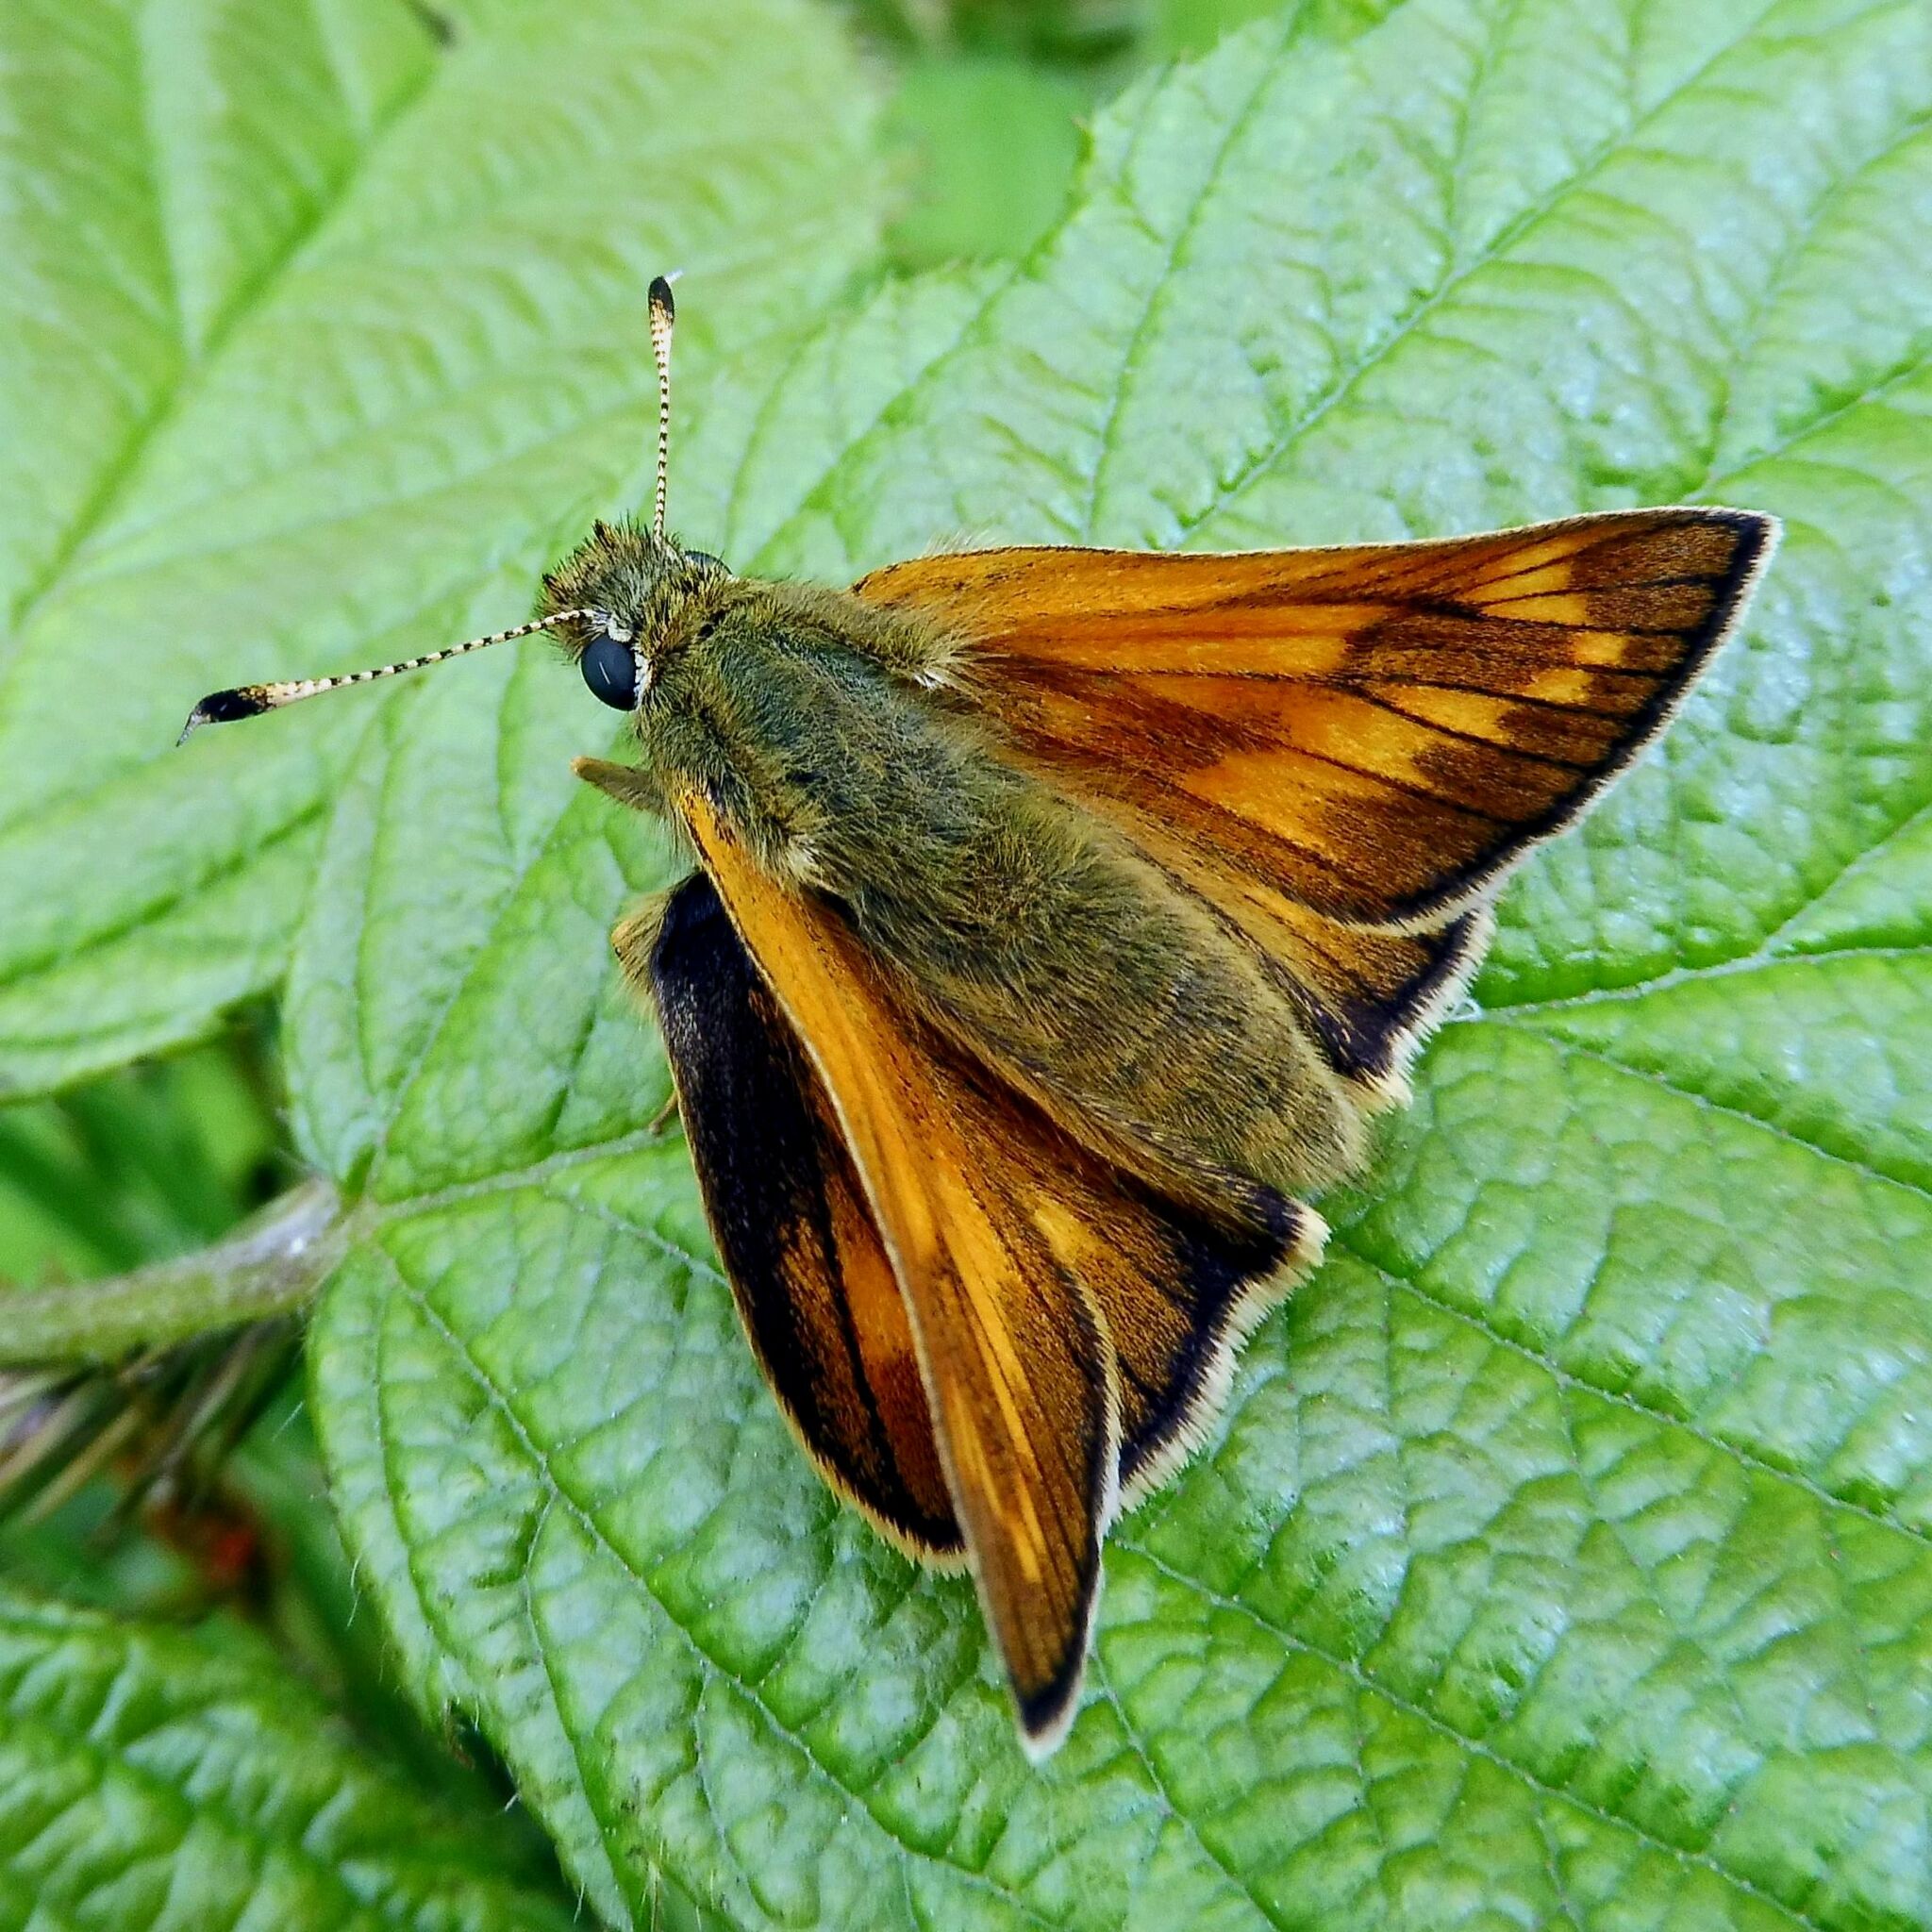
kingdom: Animalia
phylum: Arthropoda
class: Insecta
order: Lepidoptera
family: Hesperiidae
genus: Ochlodes
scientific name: Ochlodes venata
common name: Large skipper
